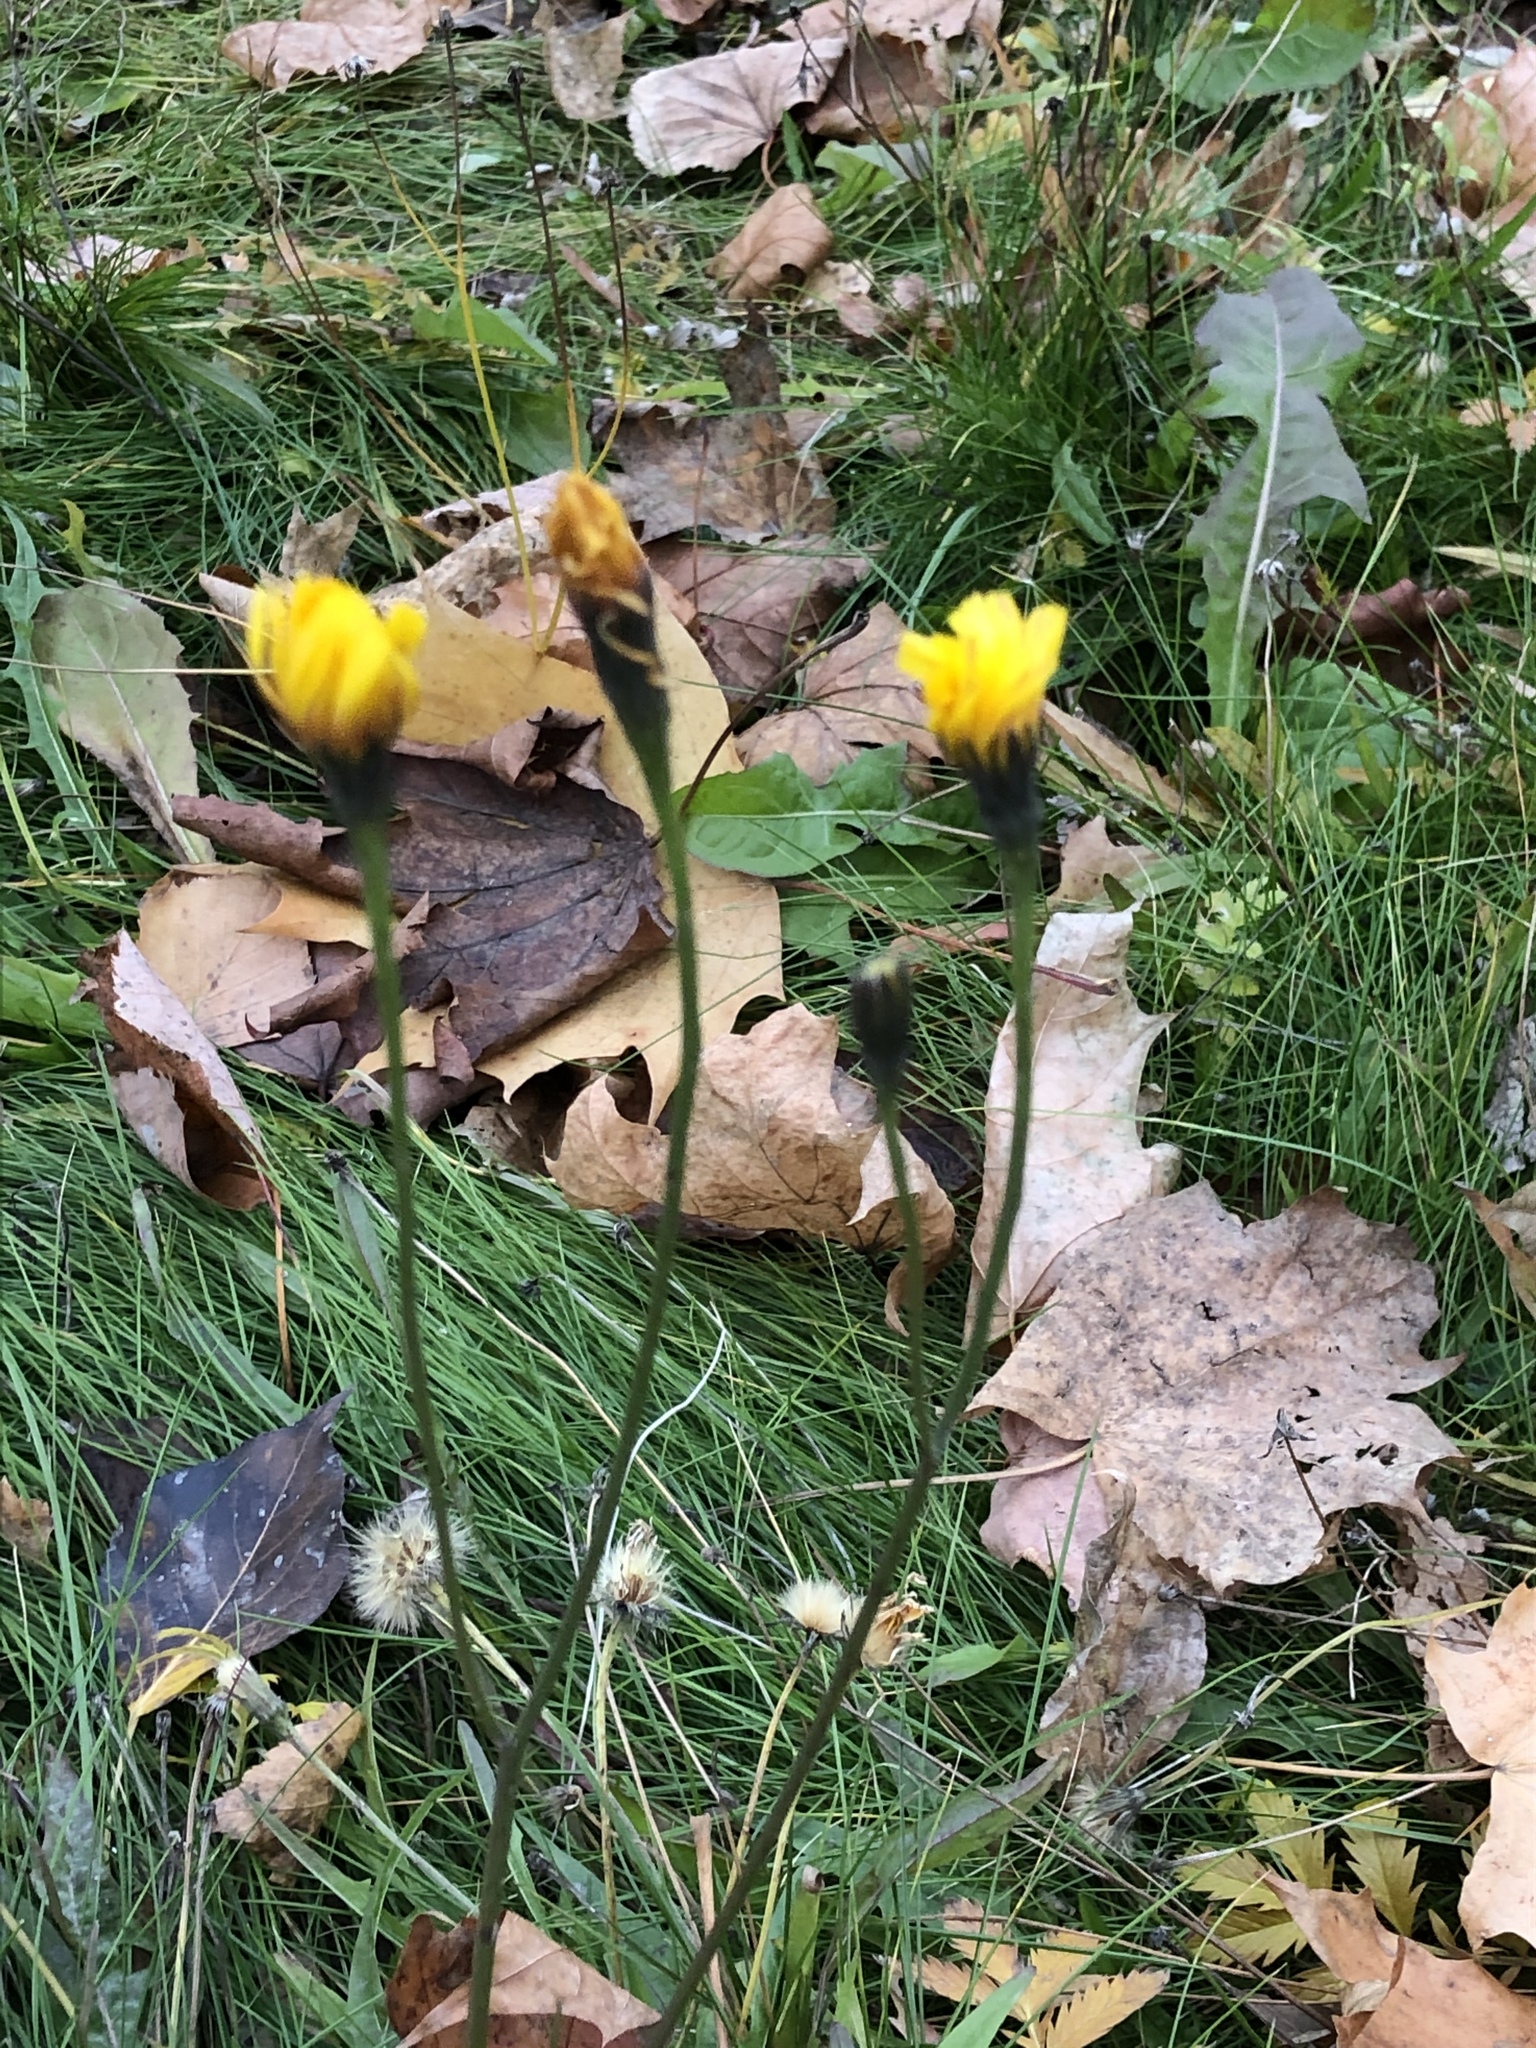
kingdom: Plantae
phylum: Tracheophyta
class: Magnoliopsida
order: Asterales
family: Asteraceae
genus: Scorzoneroides
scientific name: Scorzoneroides autumnalis
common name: Autumn hawkbit
